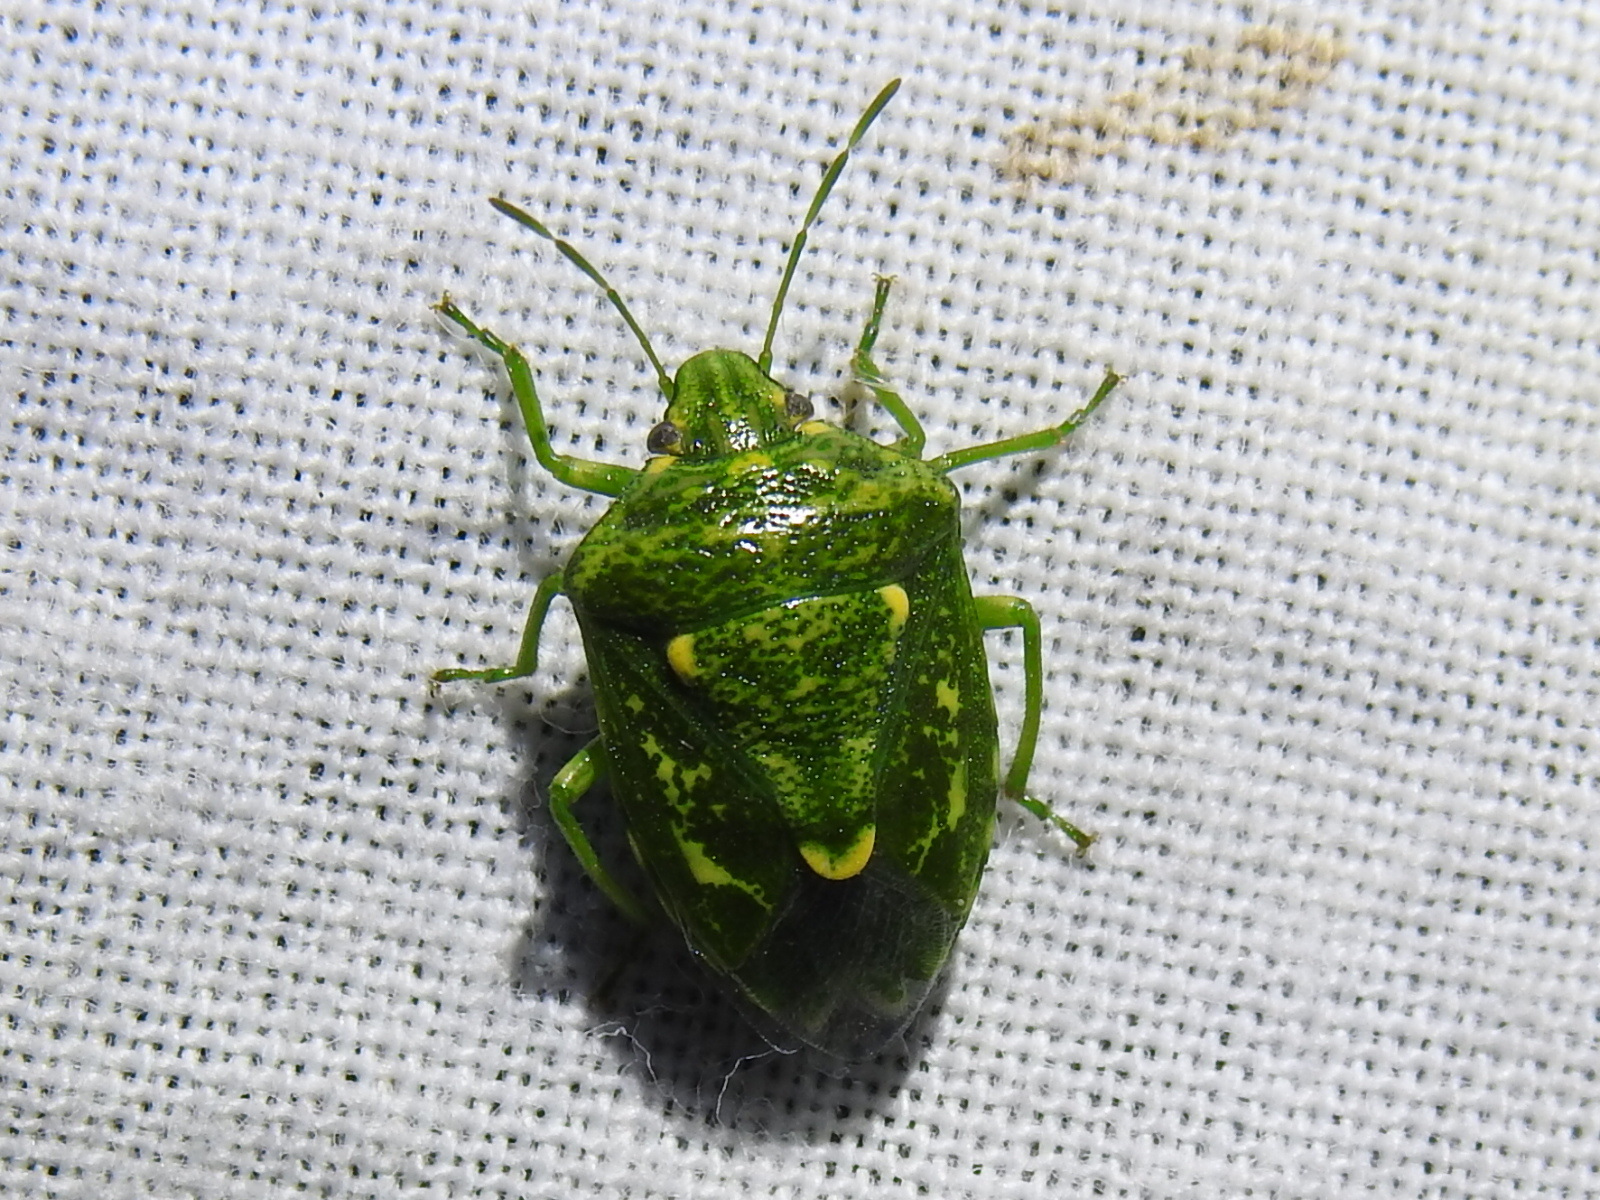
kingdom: Animalia
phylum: Arthropoda
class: Insecta
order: Hemiptera
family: Pentatomidae
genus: Banasa
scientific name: Banasa euchlora
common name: Cedar berry bug
